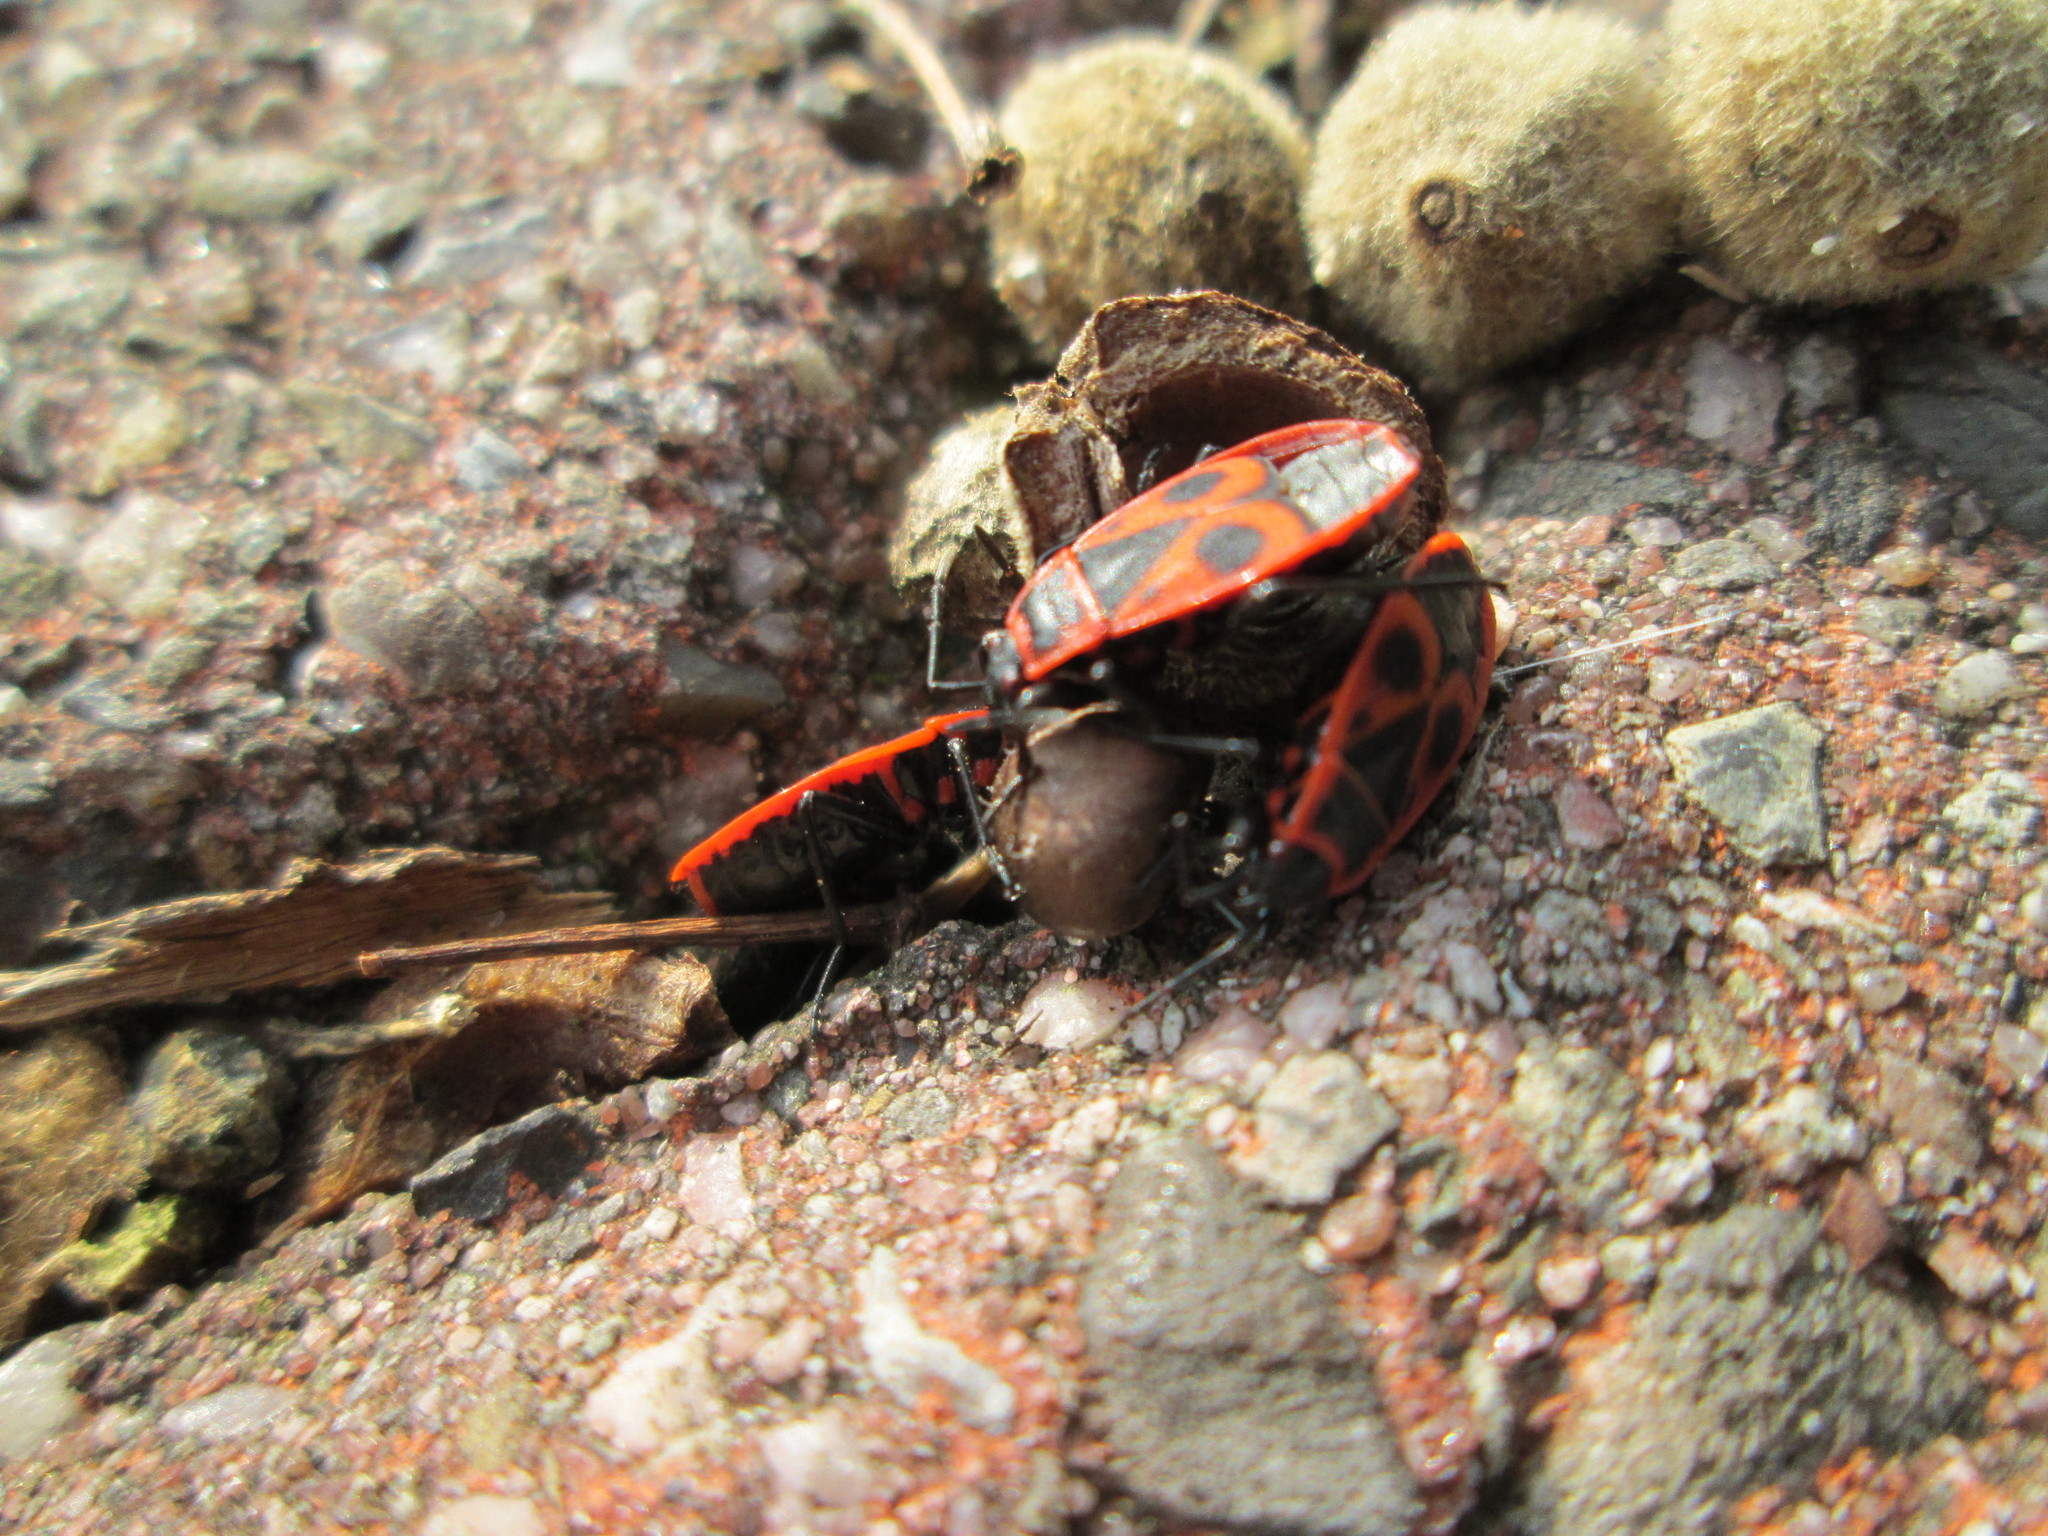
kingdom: Animalia
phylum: Arthropoda
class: Insecta
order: Hemiptera
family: Pyrrhocoridae
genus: Pyrrhocoris
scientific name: Pyrrhocoris apterus
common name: Firebug
